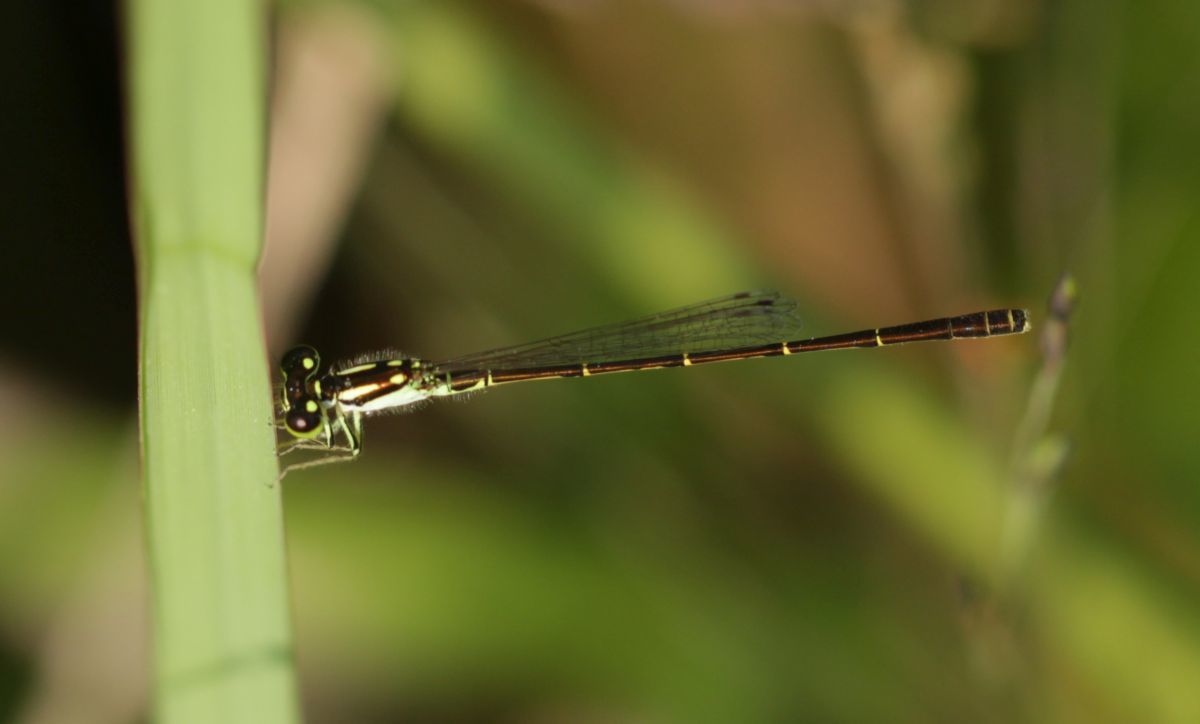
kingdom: Animalia
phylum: Arthropoda
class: Insecta
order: Odonata
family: Coenagrionidae
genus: Ischnura
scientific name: Ischnura posita
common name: Fragile forktail
